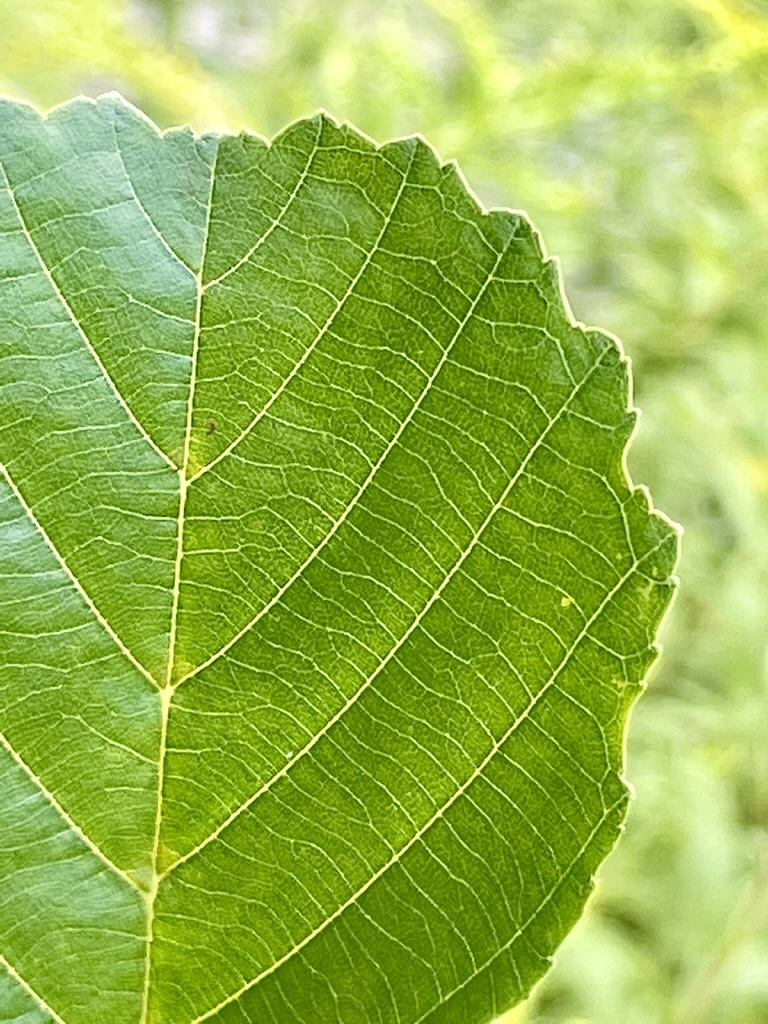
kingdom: Plantae
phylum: Tracheophyta
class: Magnoliopsida
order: Fagales
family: Betulaceae
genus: Alnus
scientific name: Alnus glutinosa
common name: Black alder
